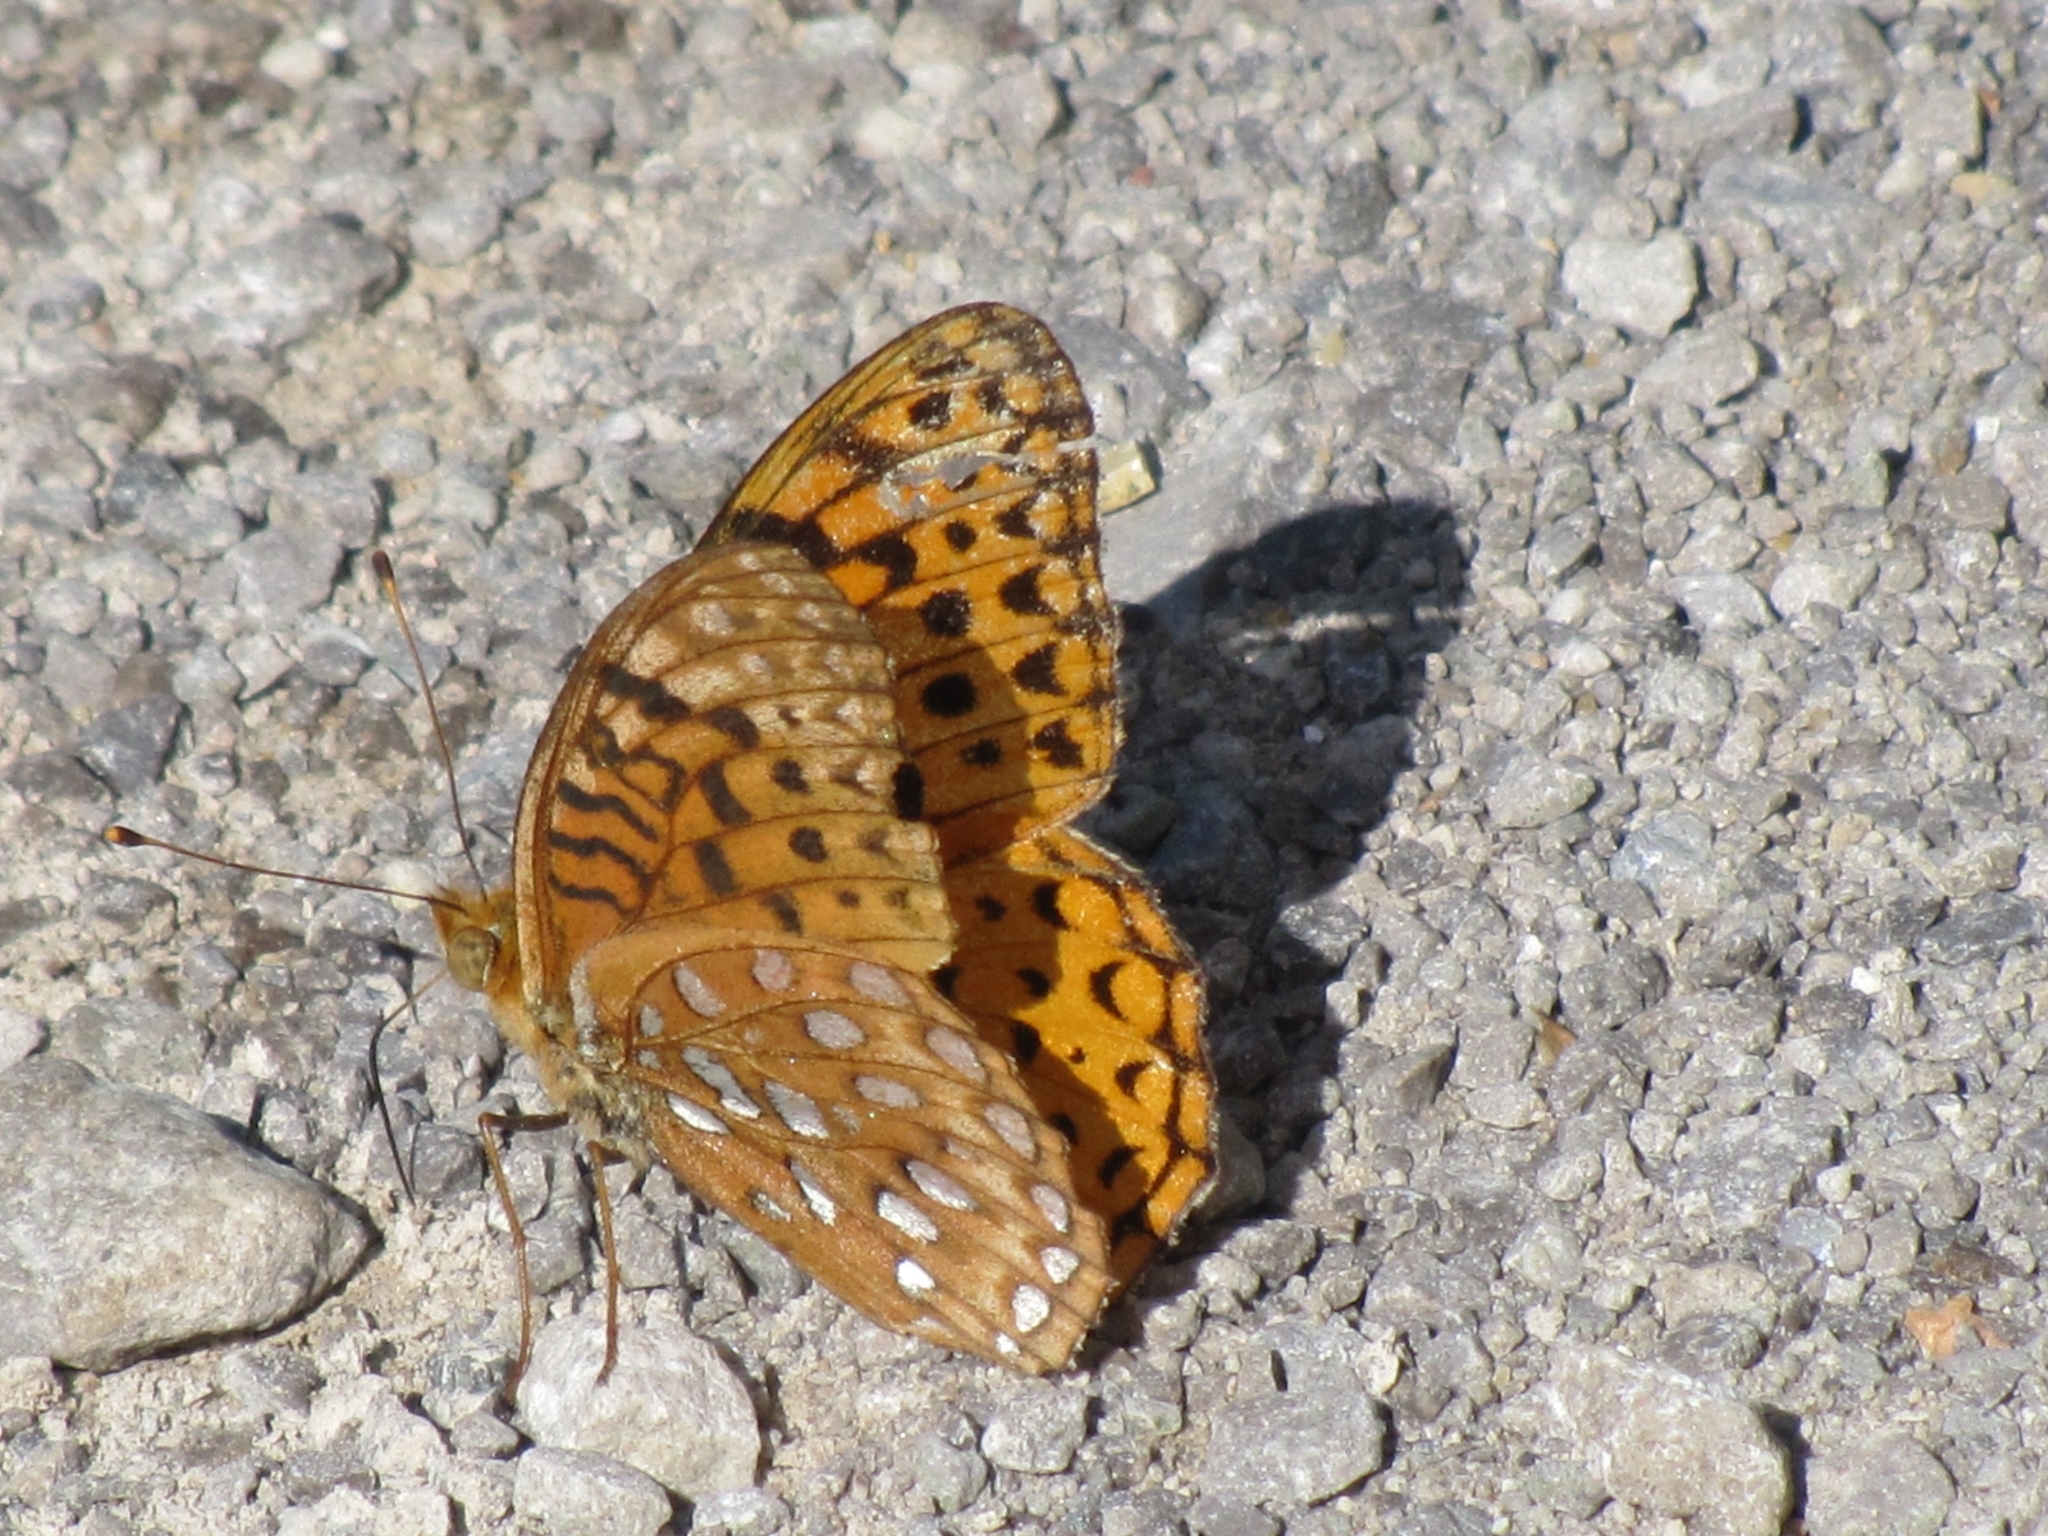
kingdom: Animalia
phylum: Arthropoda
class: Insecta
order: Lepidoptera
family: Nymphalidae
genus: Speyeria
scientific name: Speyeria aphrodite
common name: Aphrodite friitllary
